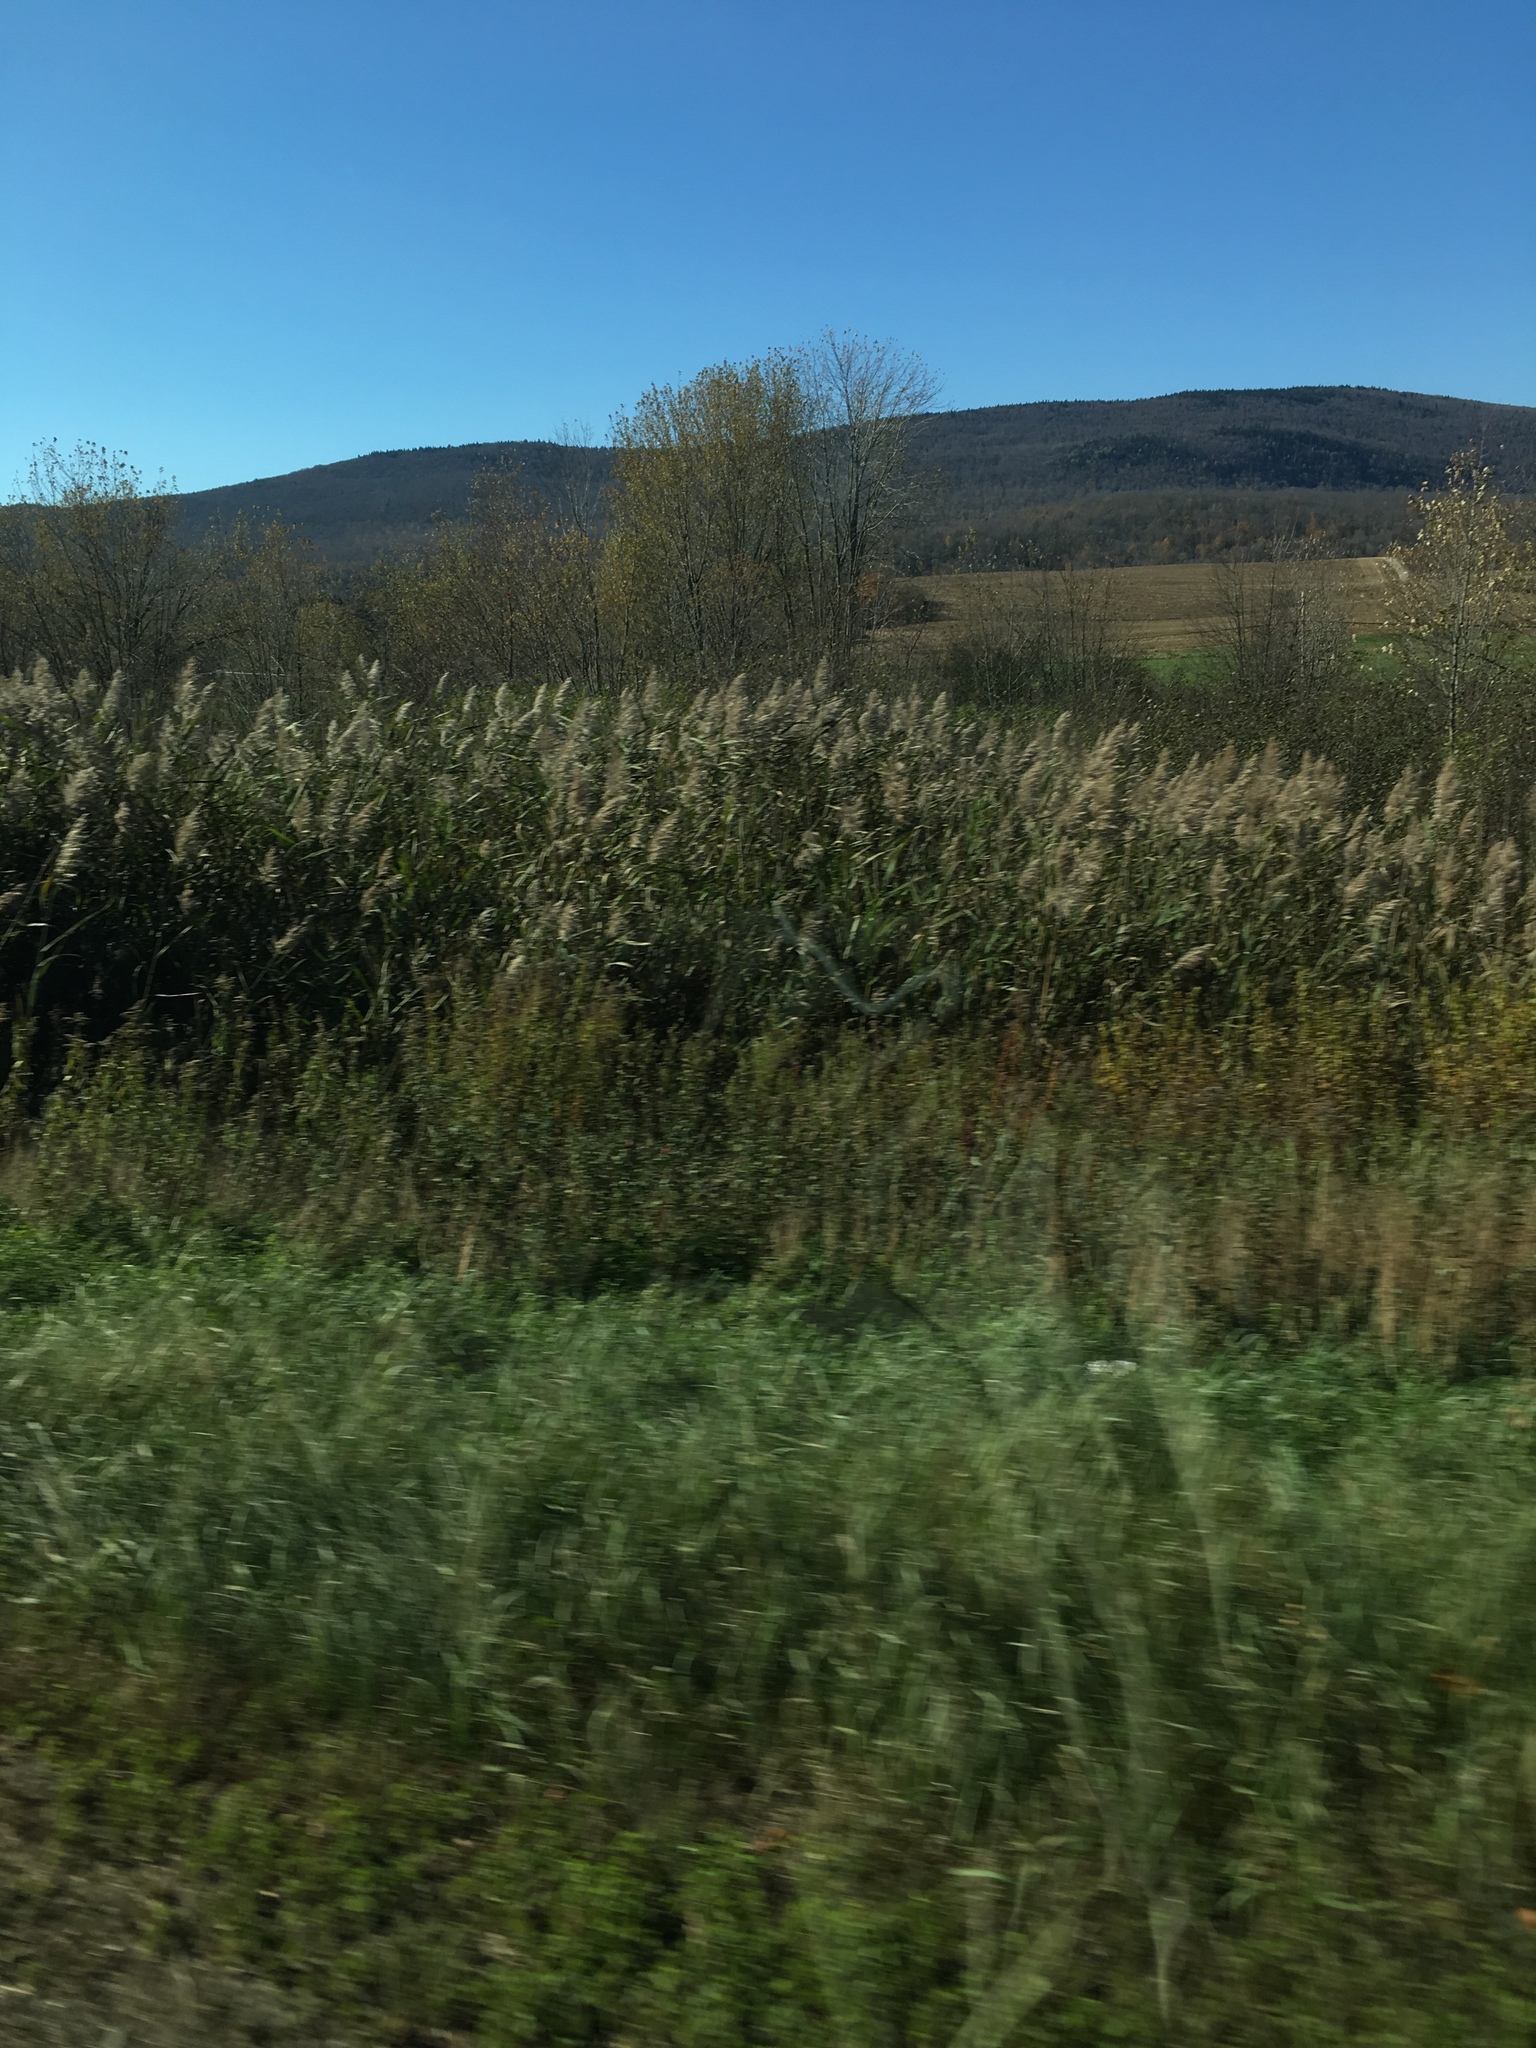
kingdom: Plantae
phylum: Tracheophyta
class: Liliopsida
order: Poales
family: Poaceae
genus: Phragmites
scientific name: Phragmites australis
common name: Common reed
